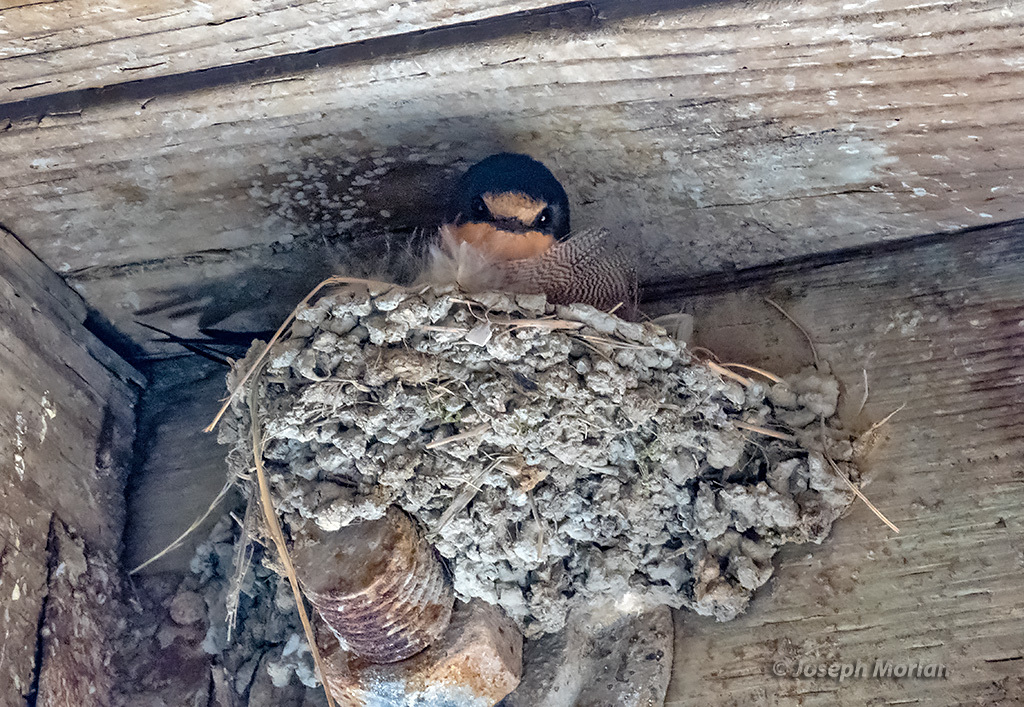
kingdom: Animalia
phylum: Chordata
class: Aves
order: Passeriformes
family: Hirundinidae
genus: Hirundo
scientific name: Hirundo rustica
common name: Barn swallow
